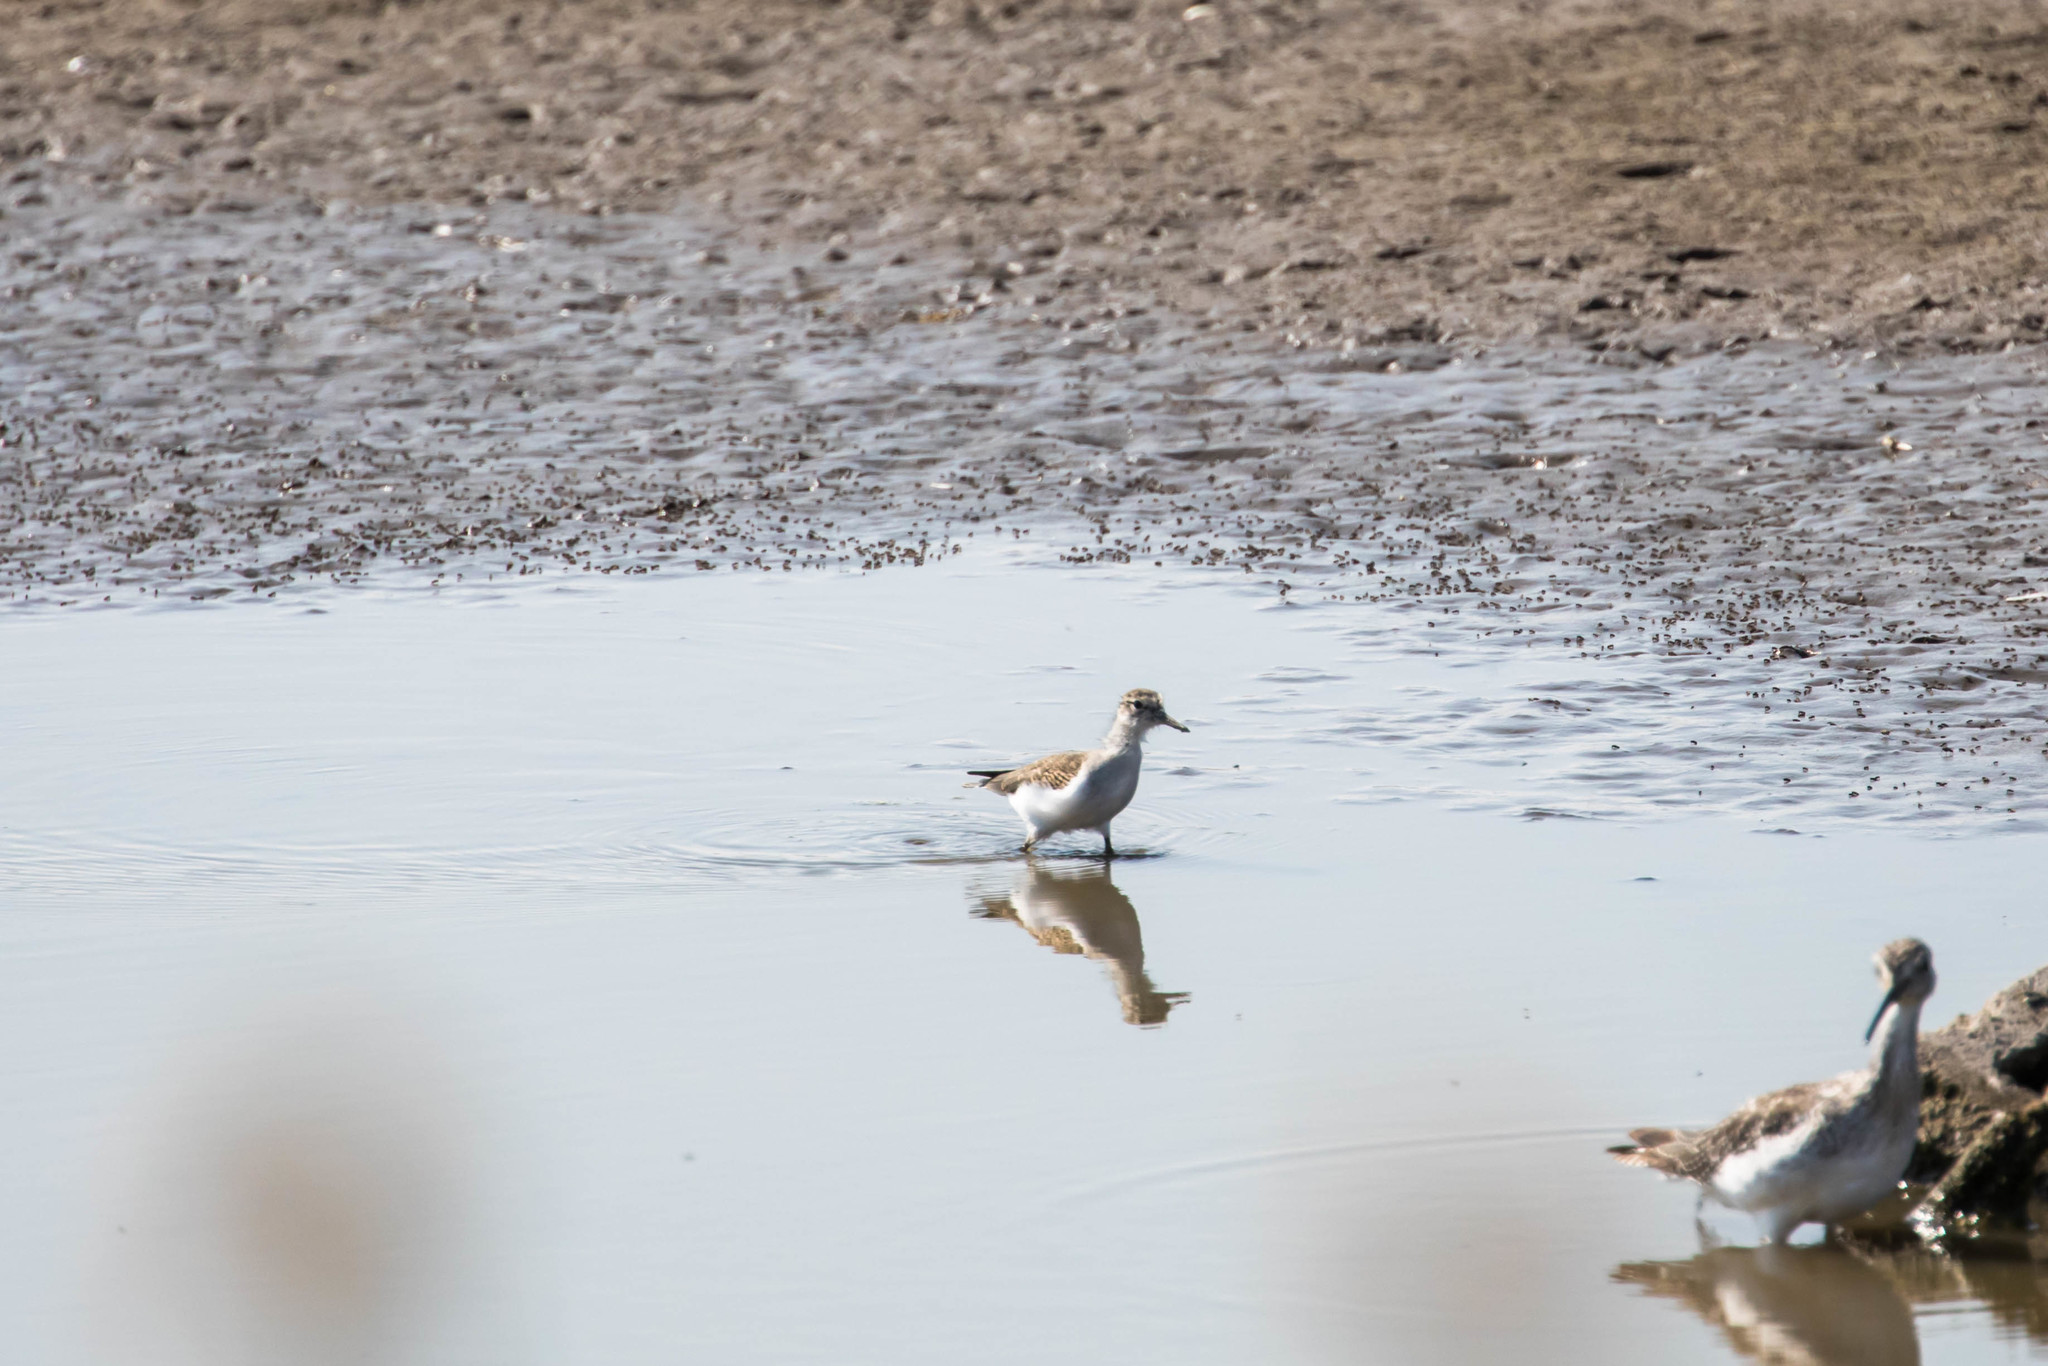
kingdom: Animalia
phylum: Chordata
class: Aves
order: Charadriiformes
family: Scolopacidae
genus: Actitis
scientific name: Actitis macularius
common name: Spotted sandpiper
